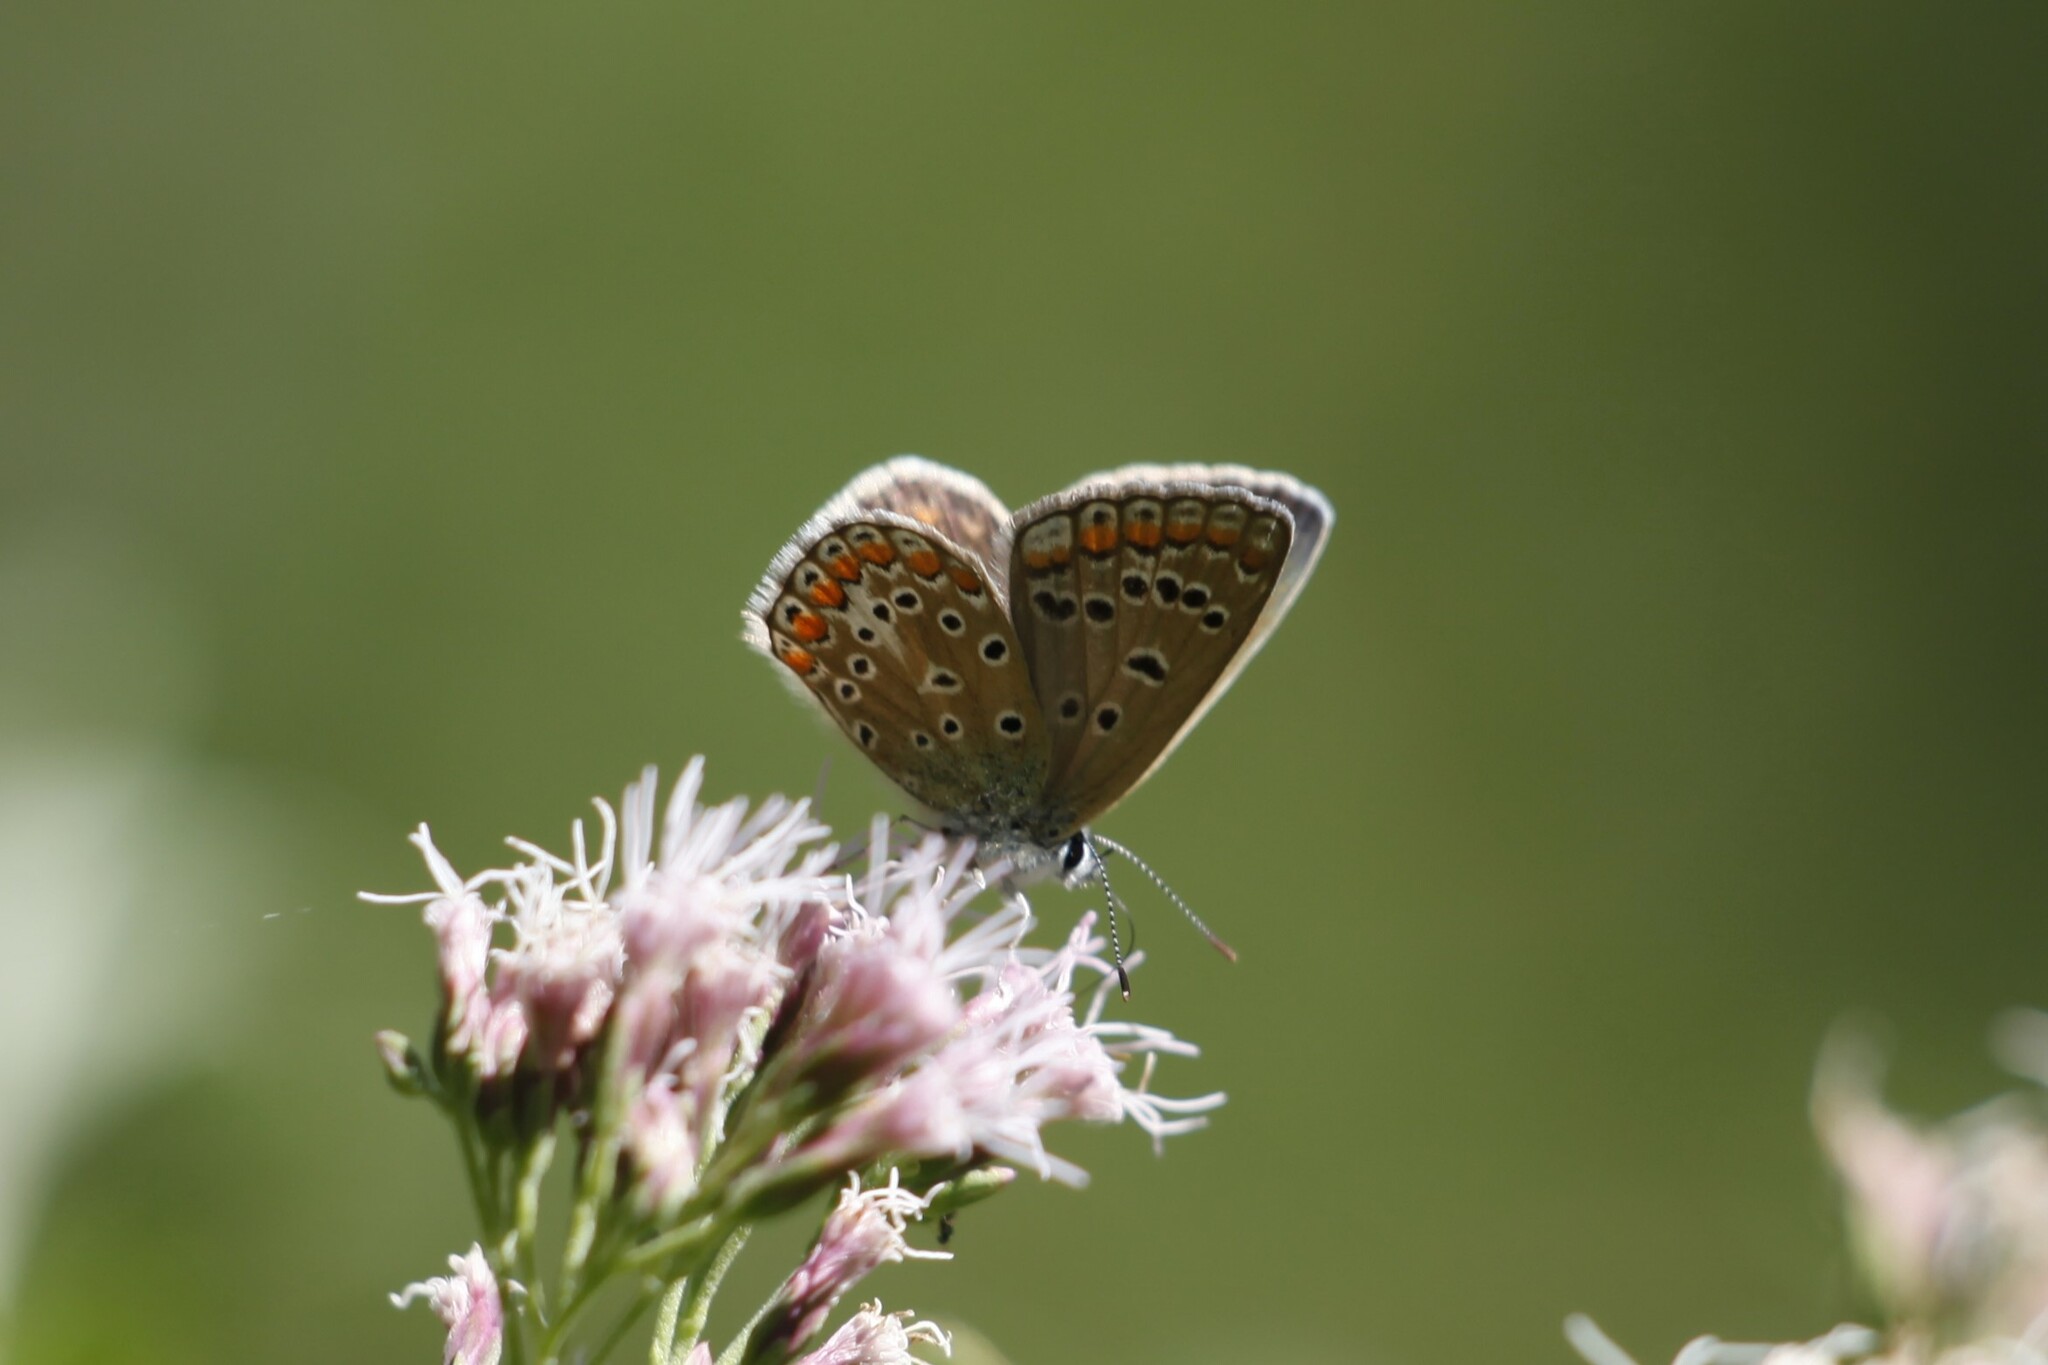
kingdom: Animalia
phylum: Arthropoda
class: Insecta
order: Lepidoptera
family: Lycaenidae
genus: Polyommatus
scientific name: Polyommatus icarus
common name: Common blue
